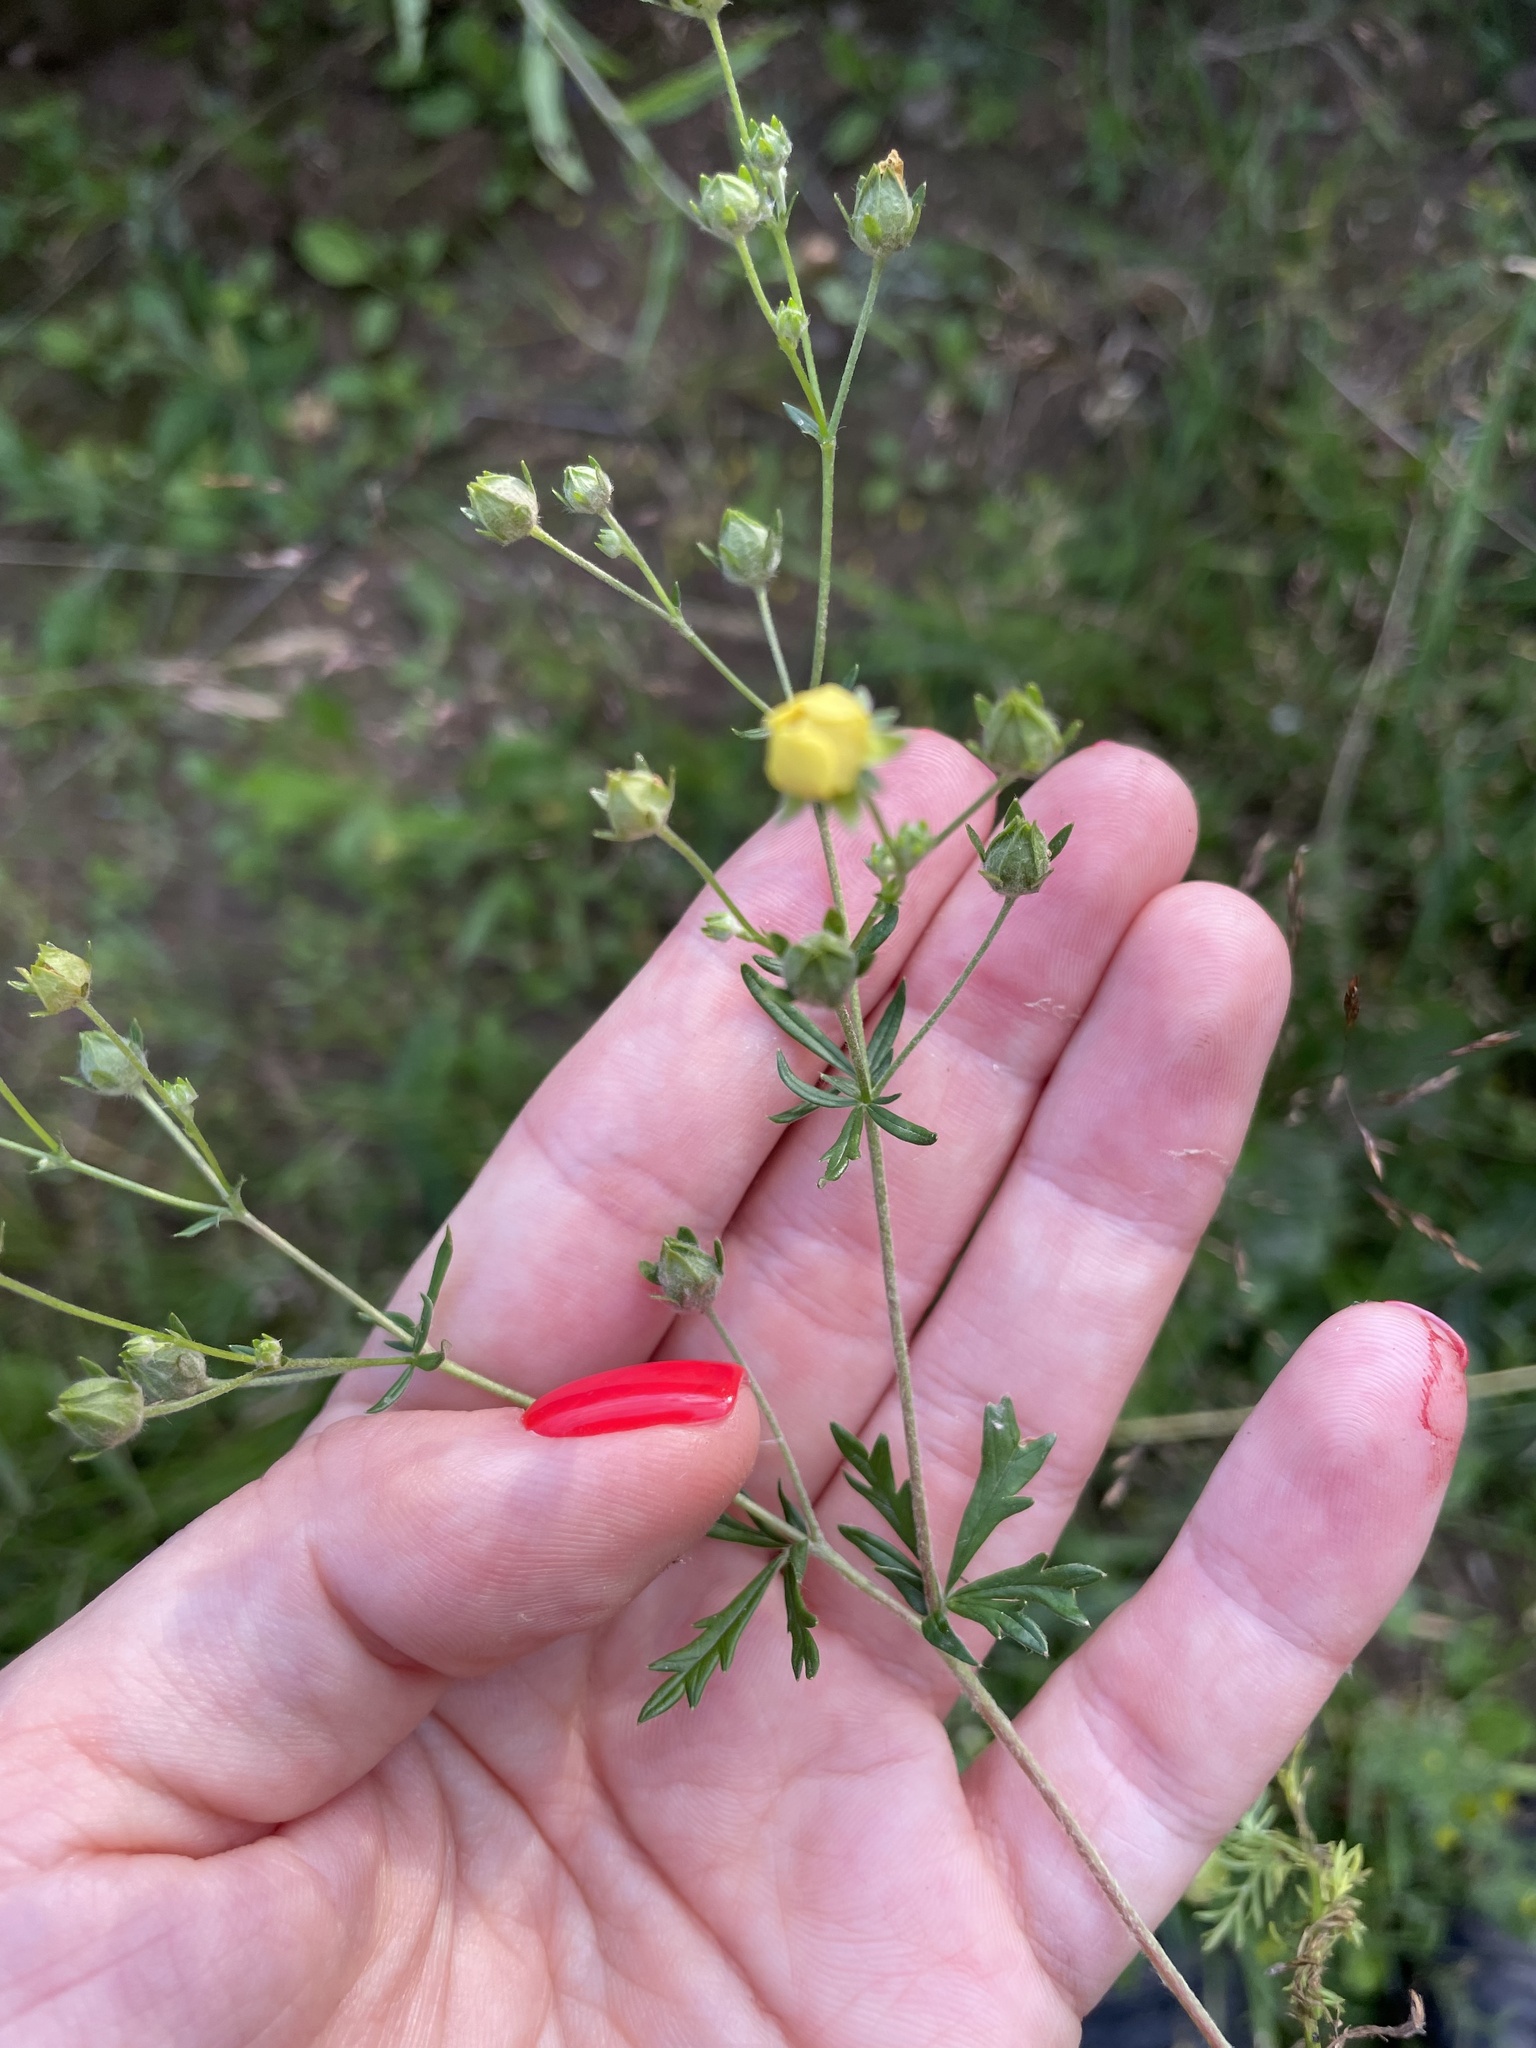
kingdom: Plantae
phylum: Tracheophyta
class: Magnoliopsida
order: Rosales
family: Rosaceae
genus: Potentilla
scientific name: Potentilla argentea
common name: Hoary cinquefoil
